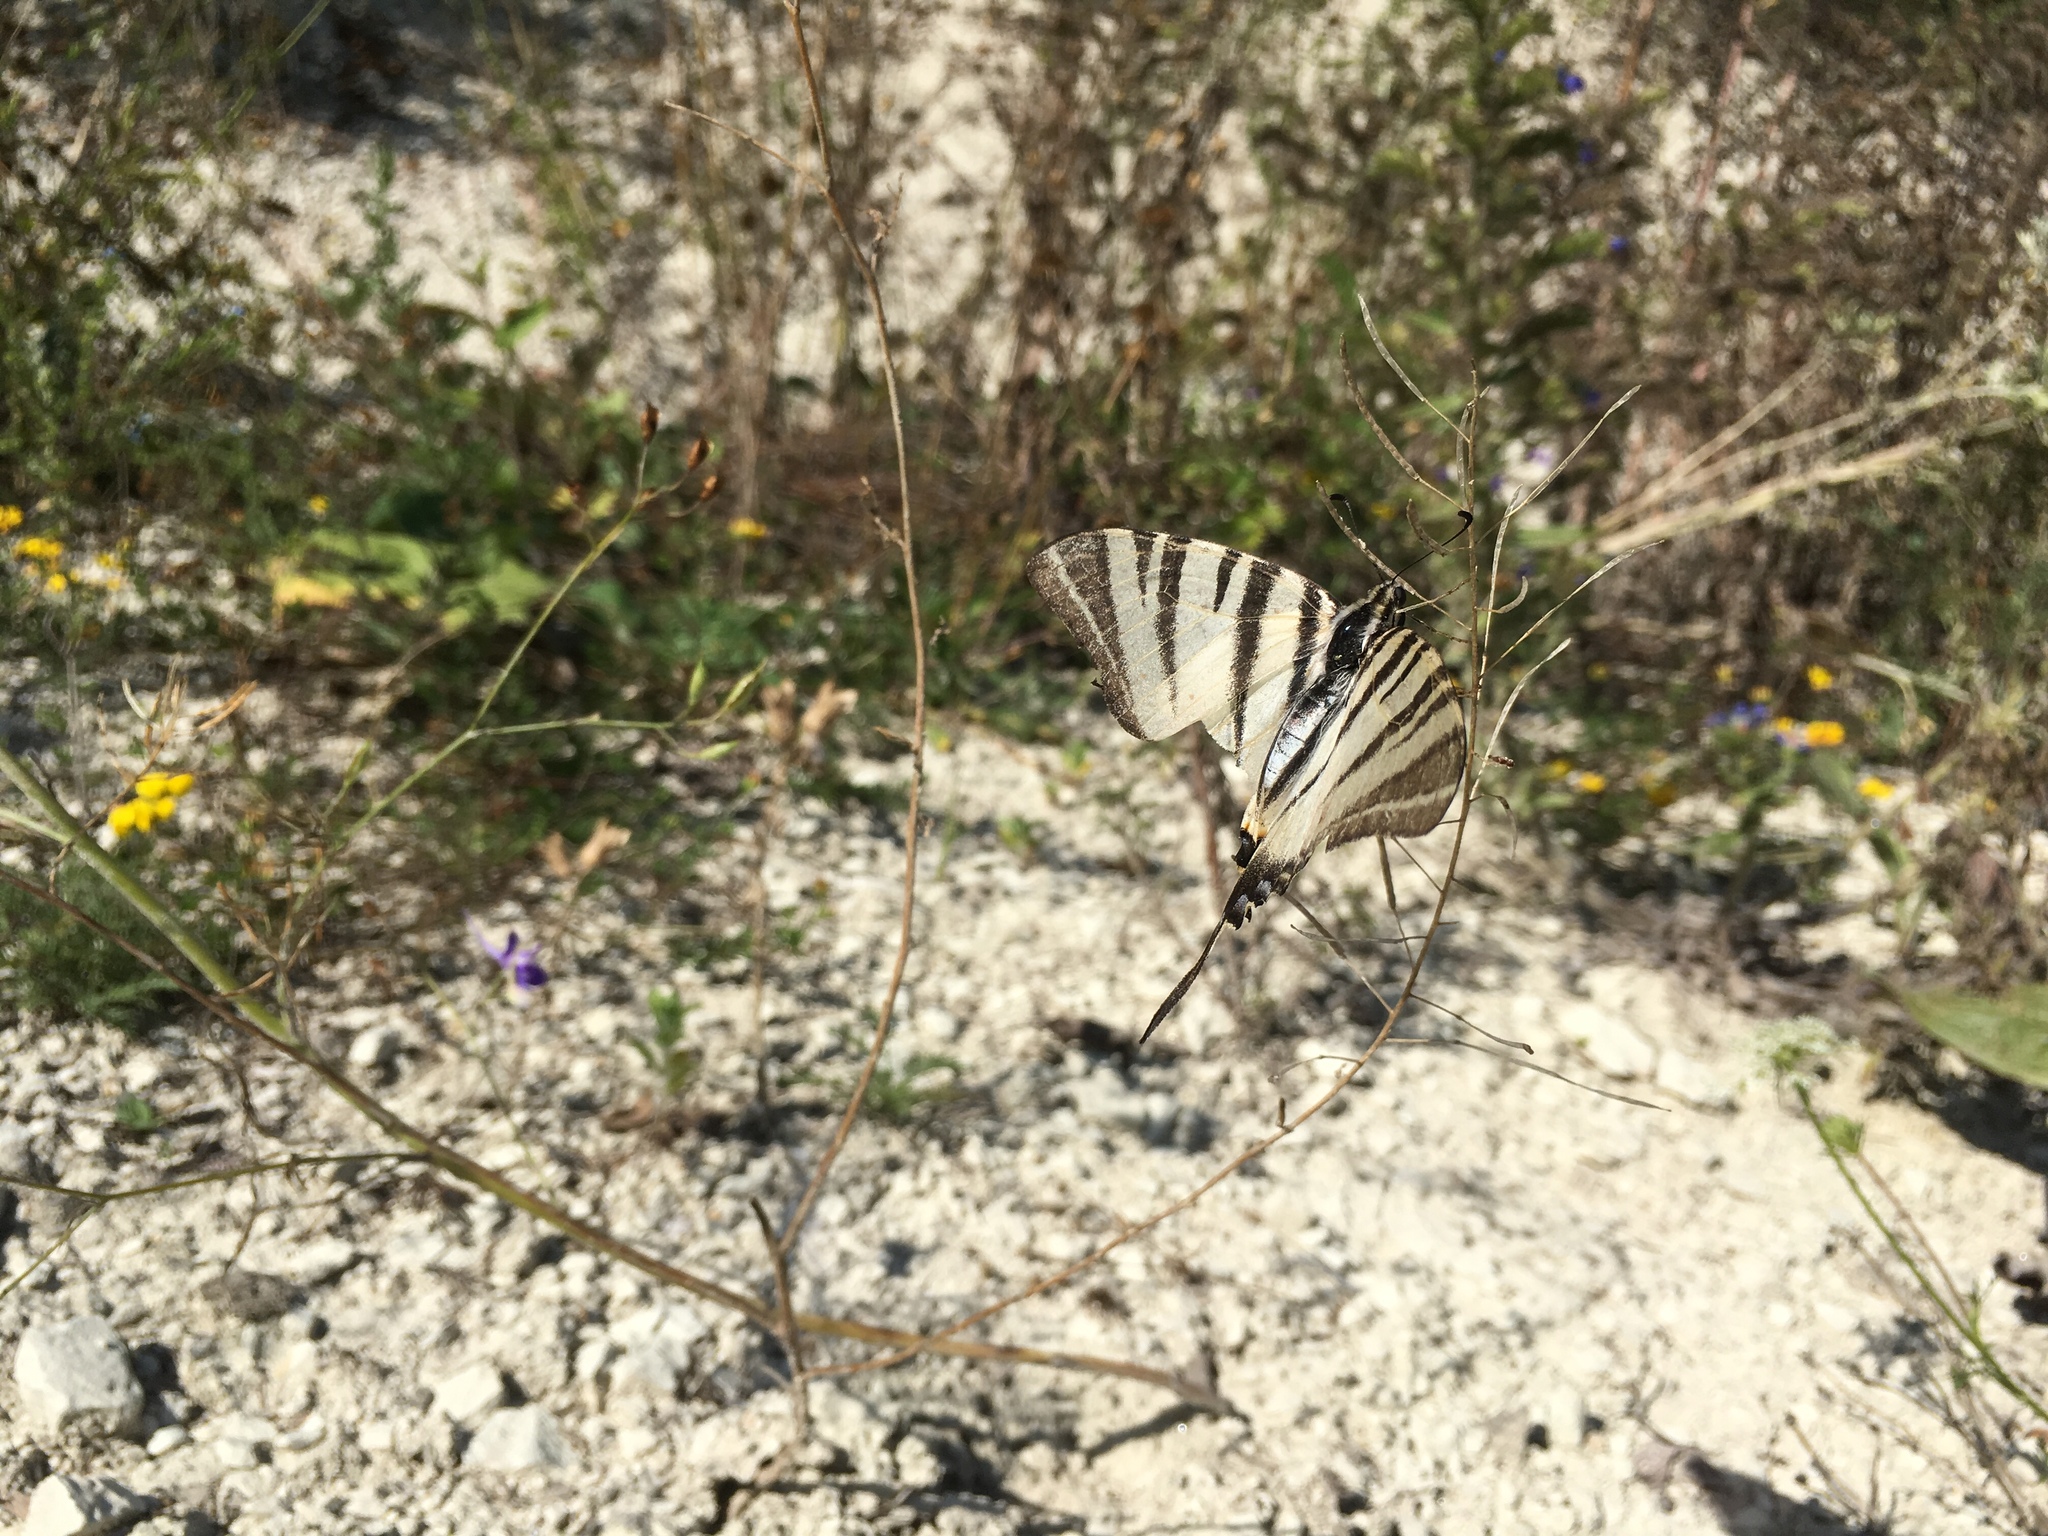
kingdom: Animalia
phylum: Arthropoda
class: Insecta
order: Lepidoptera
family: Papilionidae
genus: Iphiclides
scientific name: Iphiclides podalirius
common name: Scarce swallowtail
